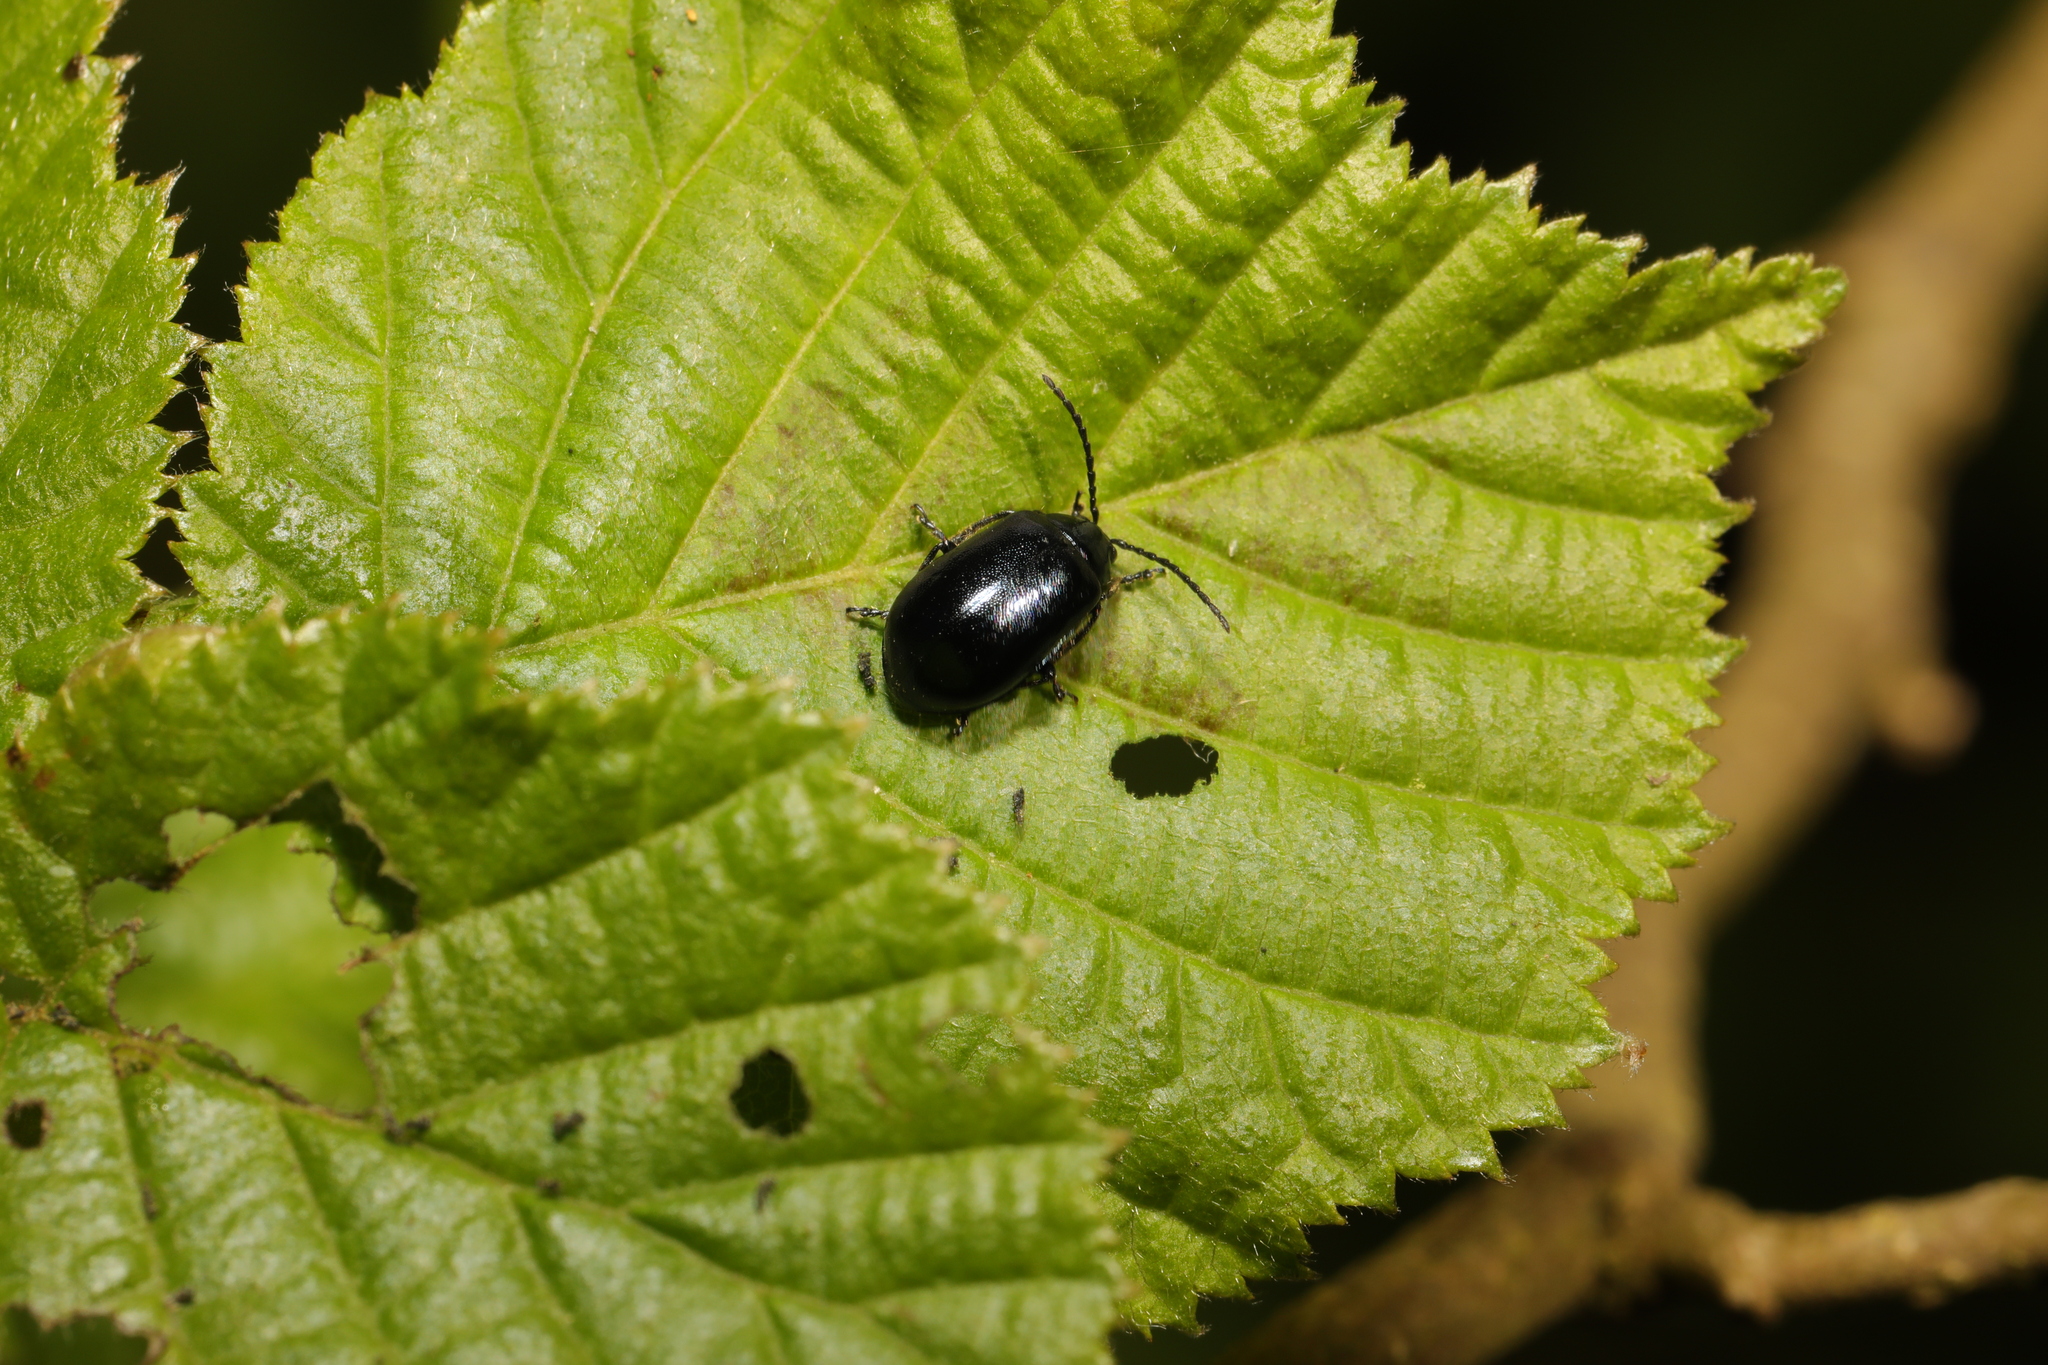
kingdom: Animalia
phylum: Arthropoda
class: Insecta
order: Coleoptera
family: Chrysomelidae
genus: Agelastica
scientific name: Agelastica alni
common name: Alder leaf beetle
